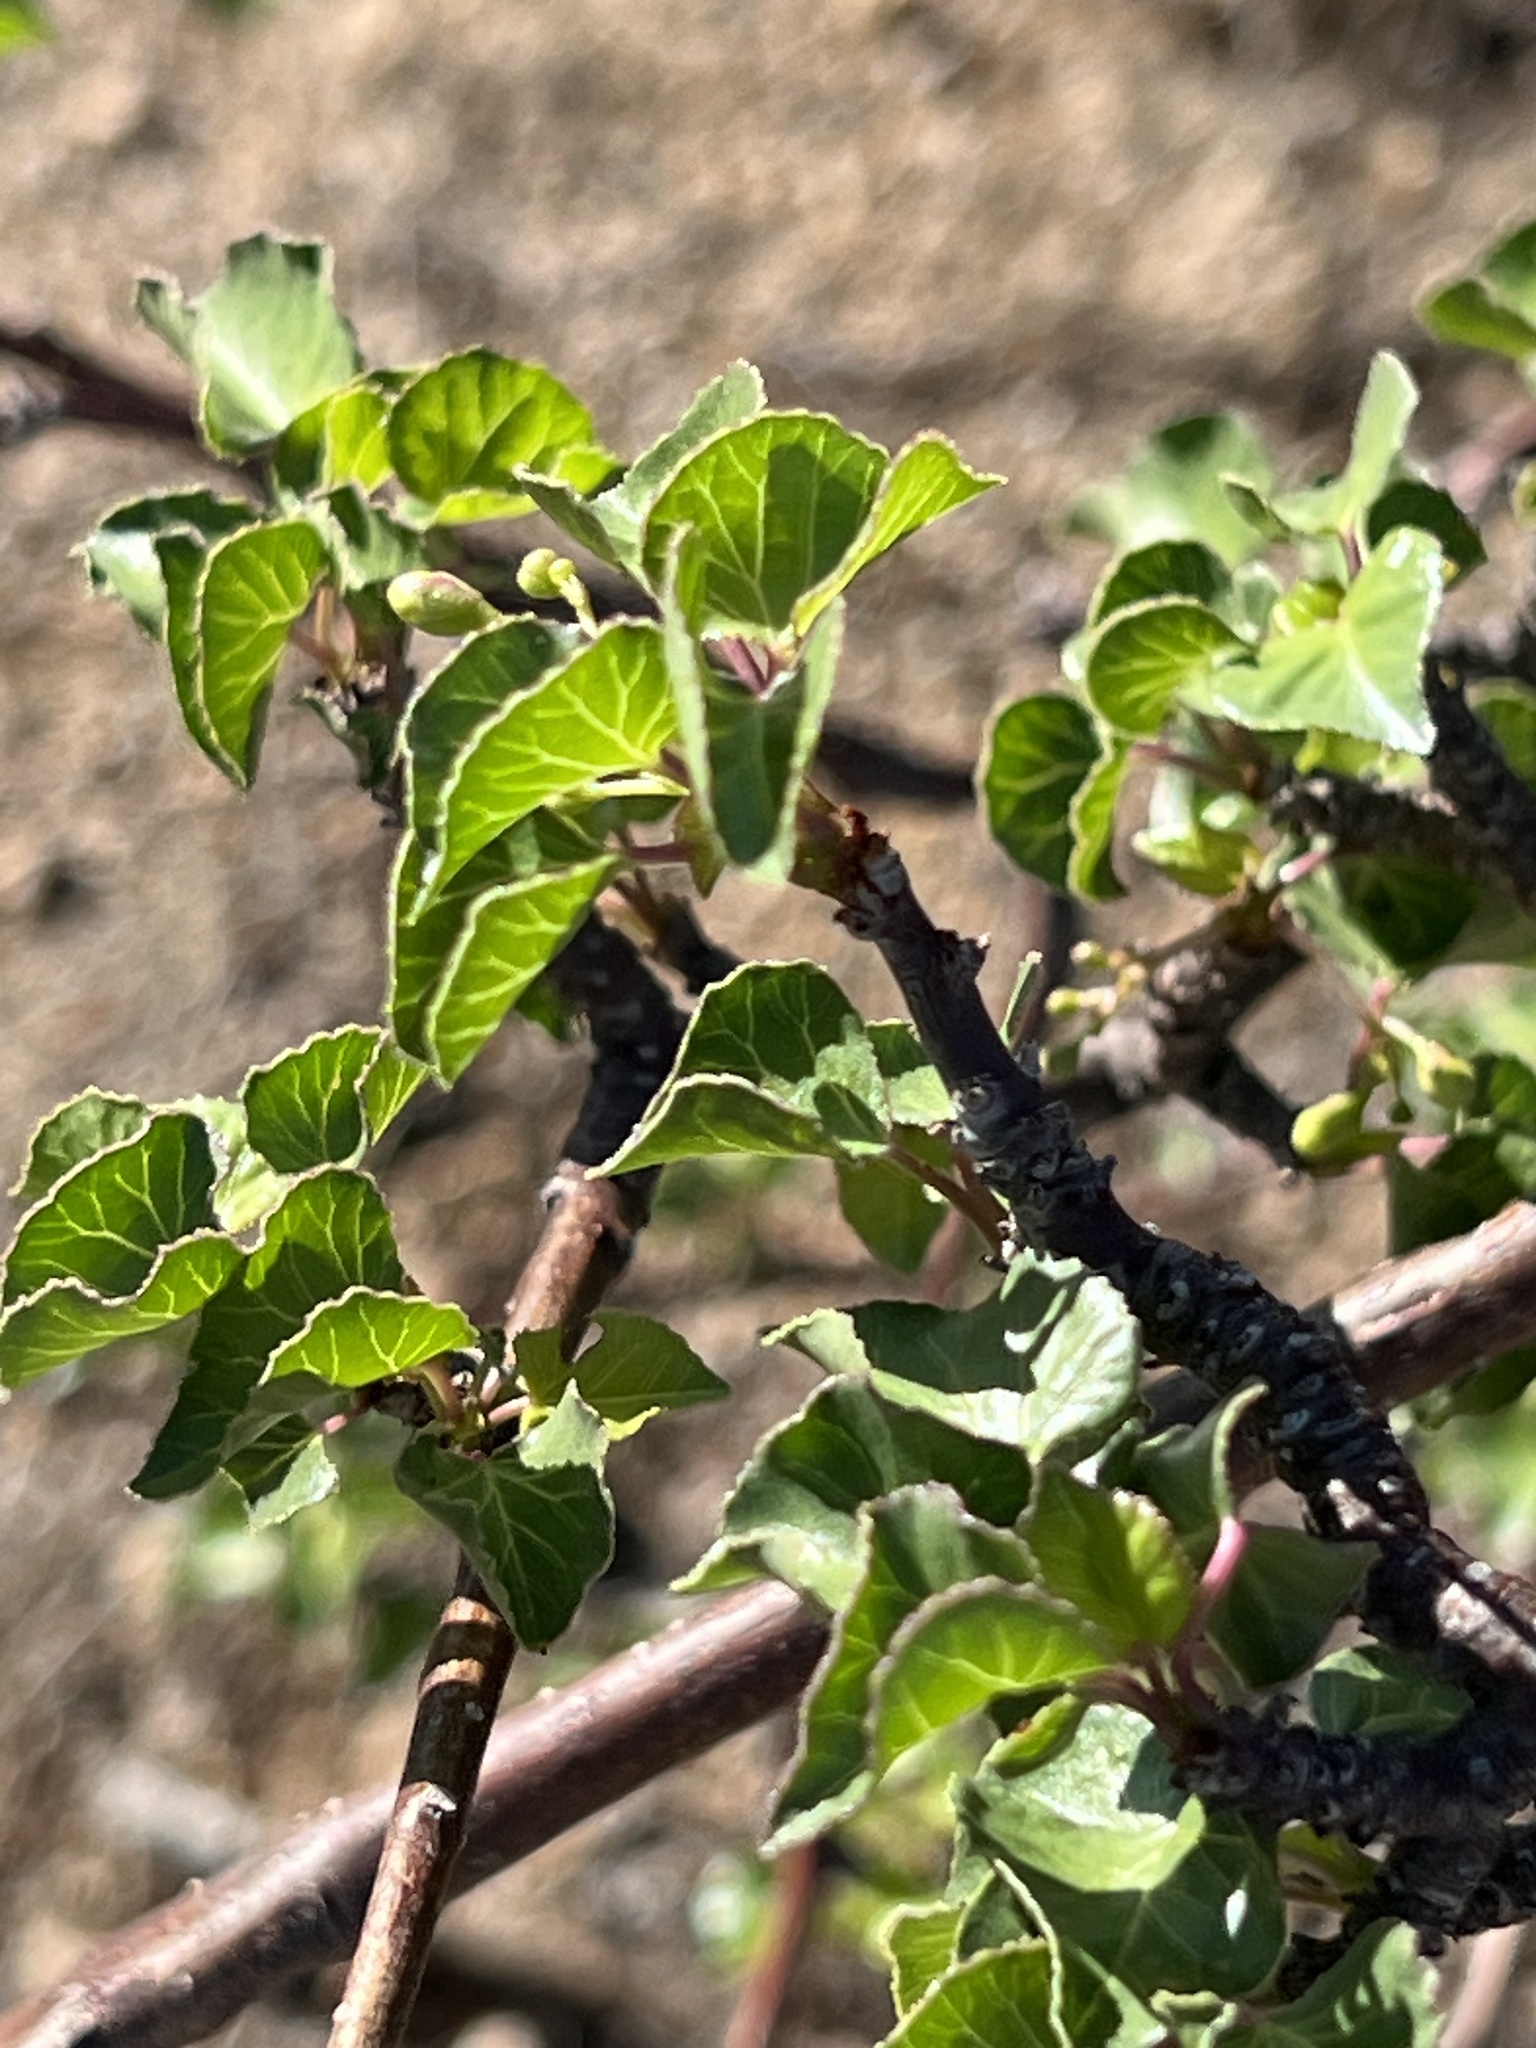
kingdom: Plantae
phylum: Tracheophyta
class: Magnoliopsida
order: Malpighiales
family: Euphorbiaceae
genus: Jatropha
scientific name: Jatropha cardiophylla
